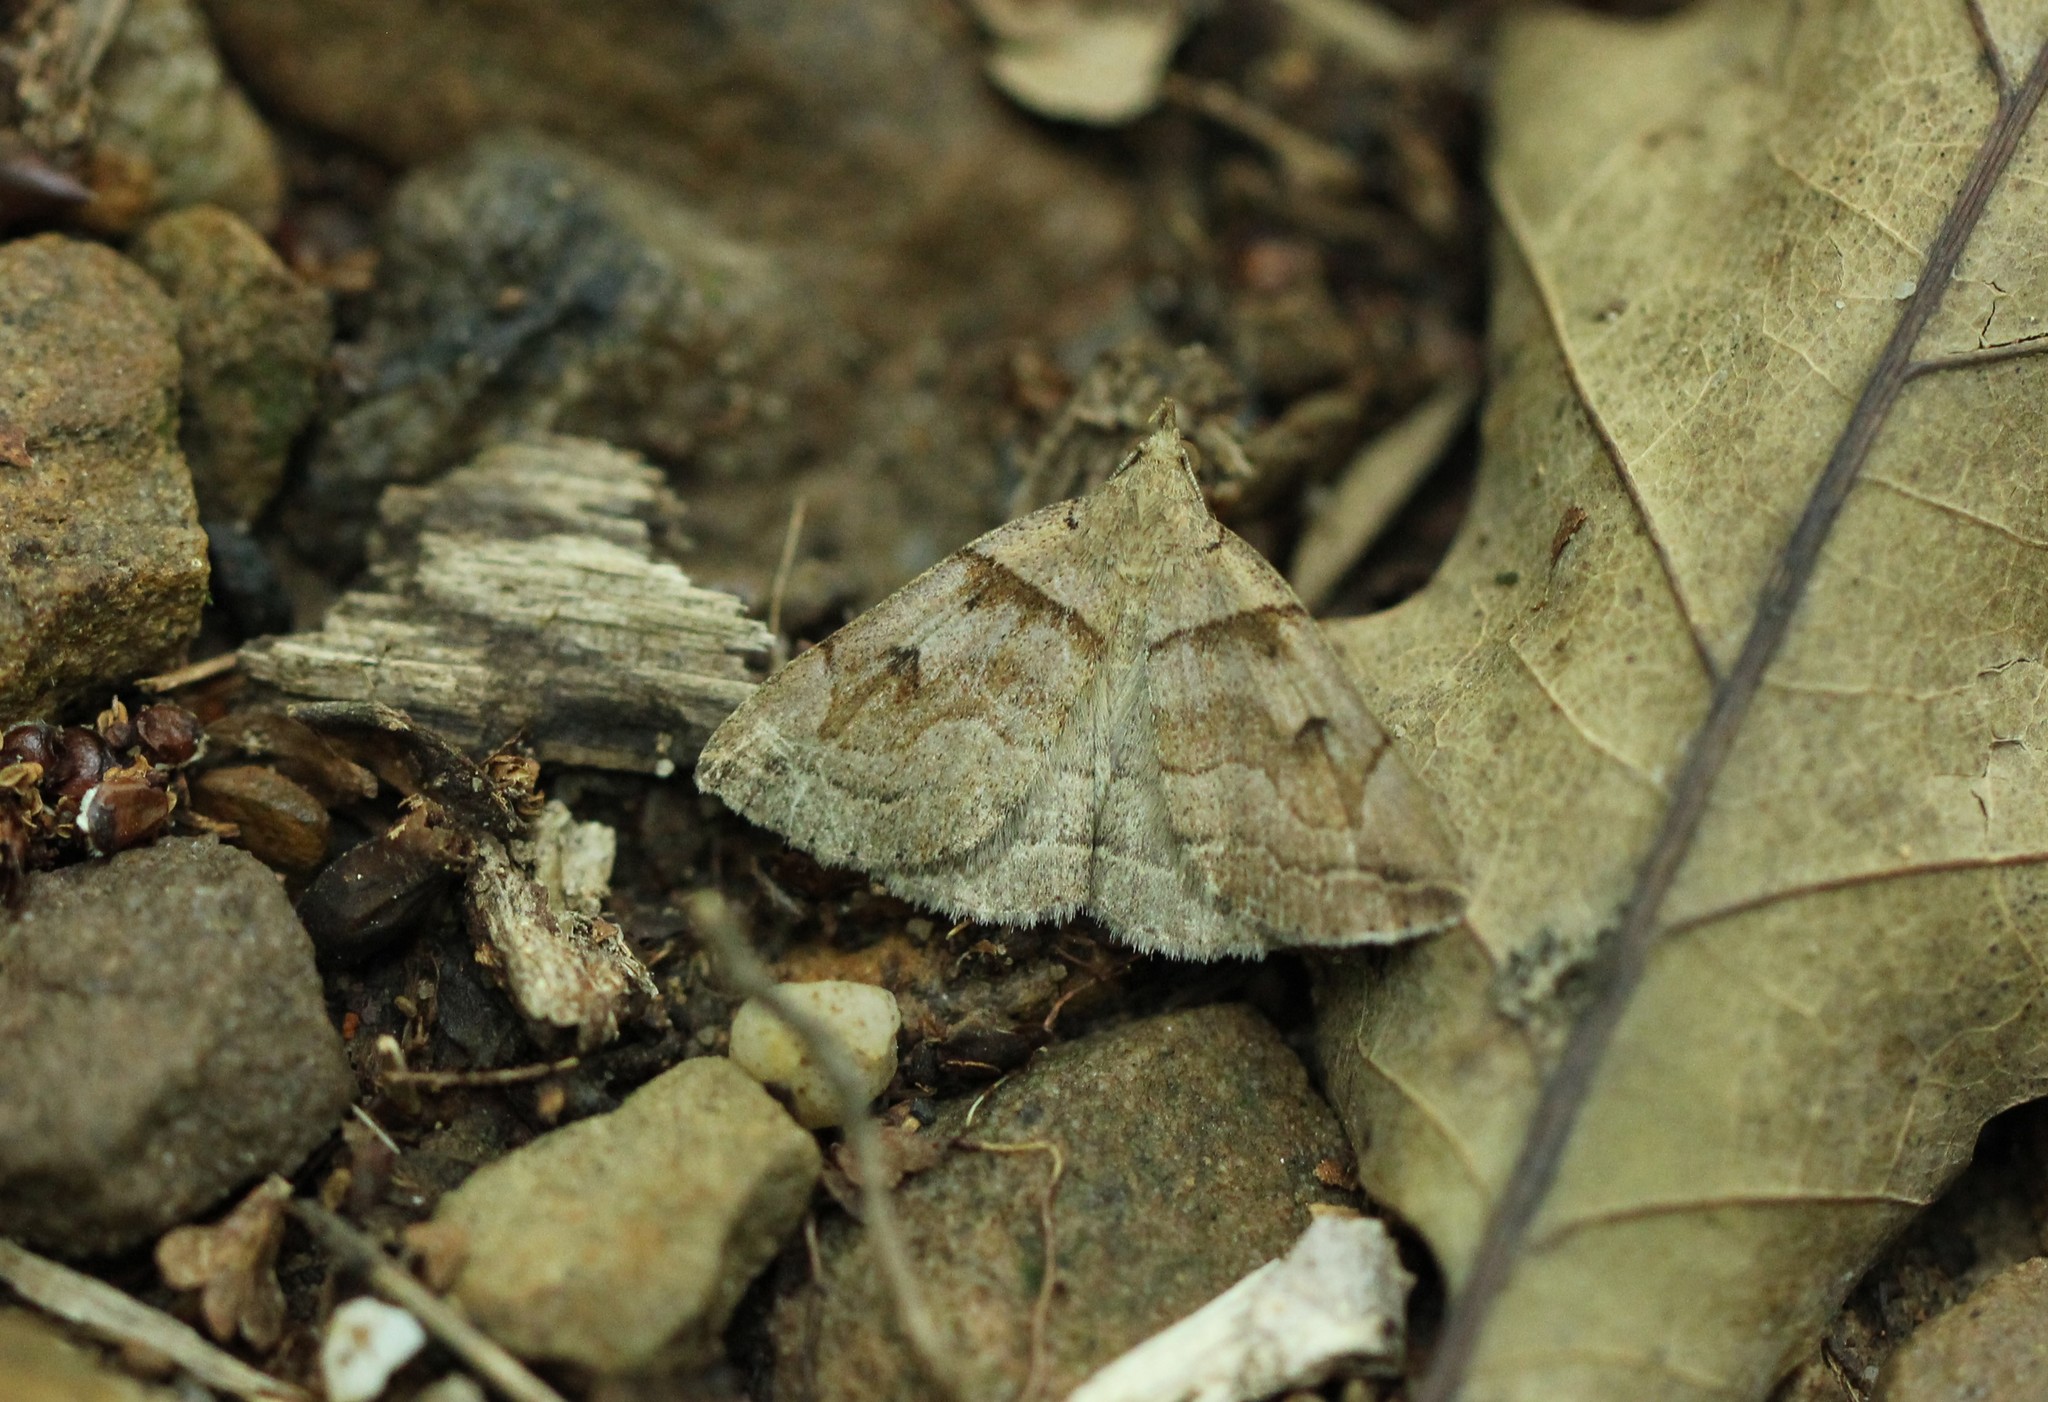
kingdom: Animalia
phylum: Arthropoda
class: Insecta
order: Lepidoptera
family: Erebidae
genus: Zanclognatha
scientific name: Zanclognatha laevigata
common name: Variable fan-foot
